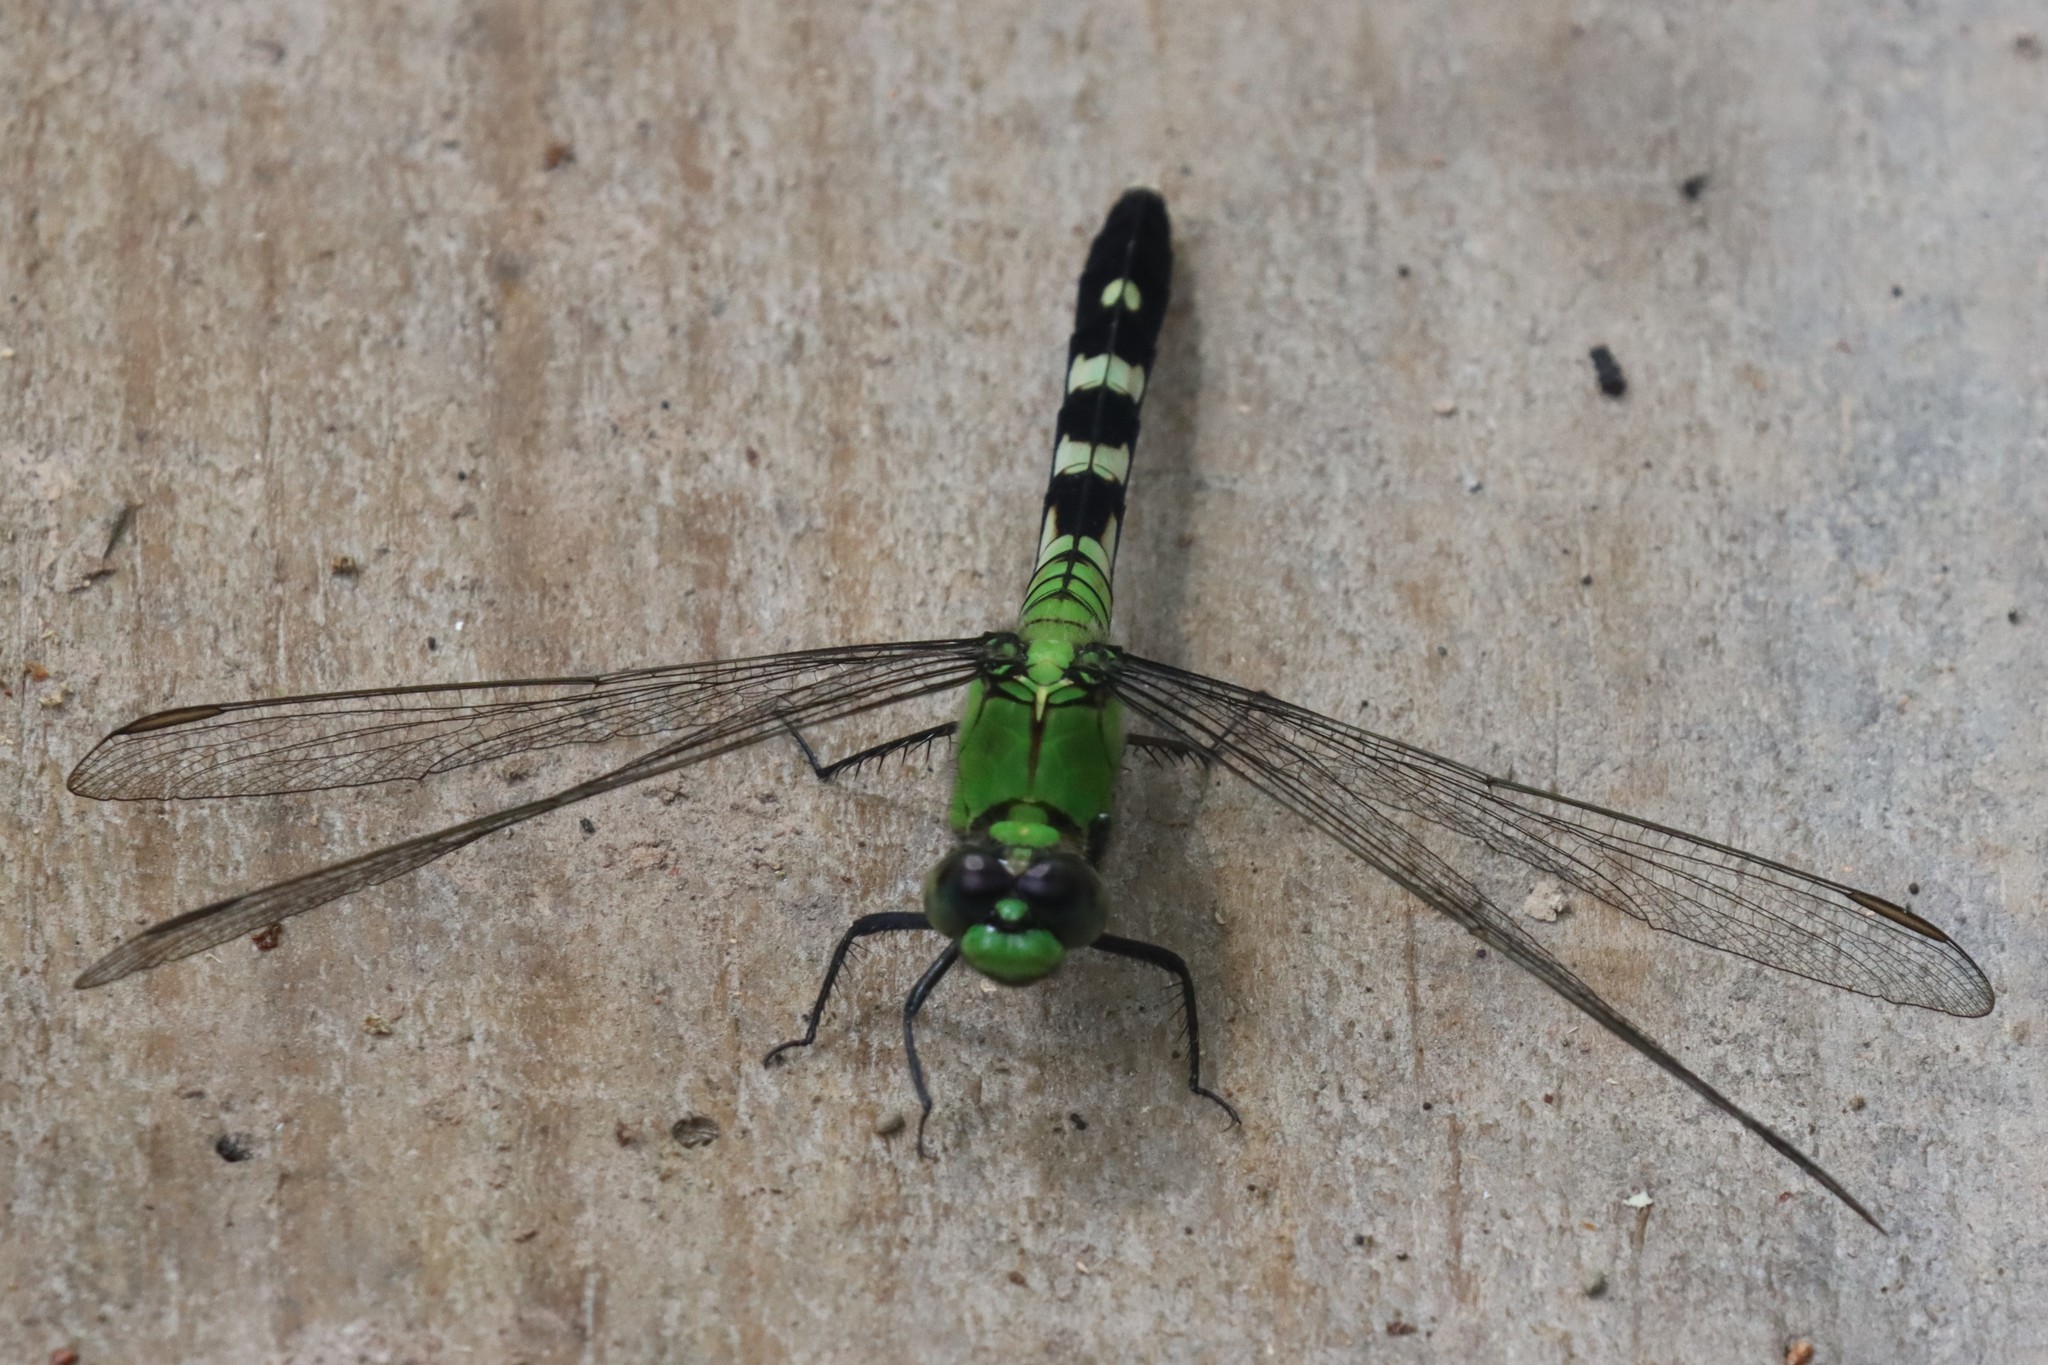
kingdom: Animalia
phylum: Arthropoda
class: Insecta
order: Odonata
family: Libellulidae
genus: Erythemis
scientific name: Erythemis simplicicollis
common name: Eastern pondhawk
